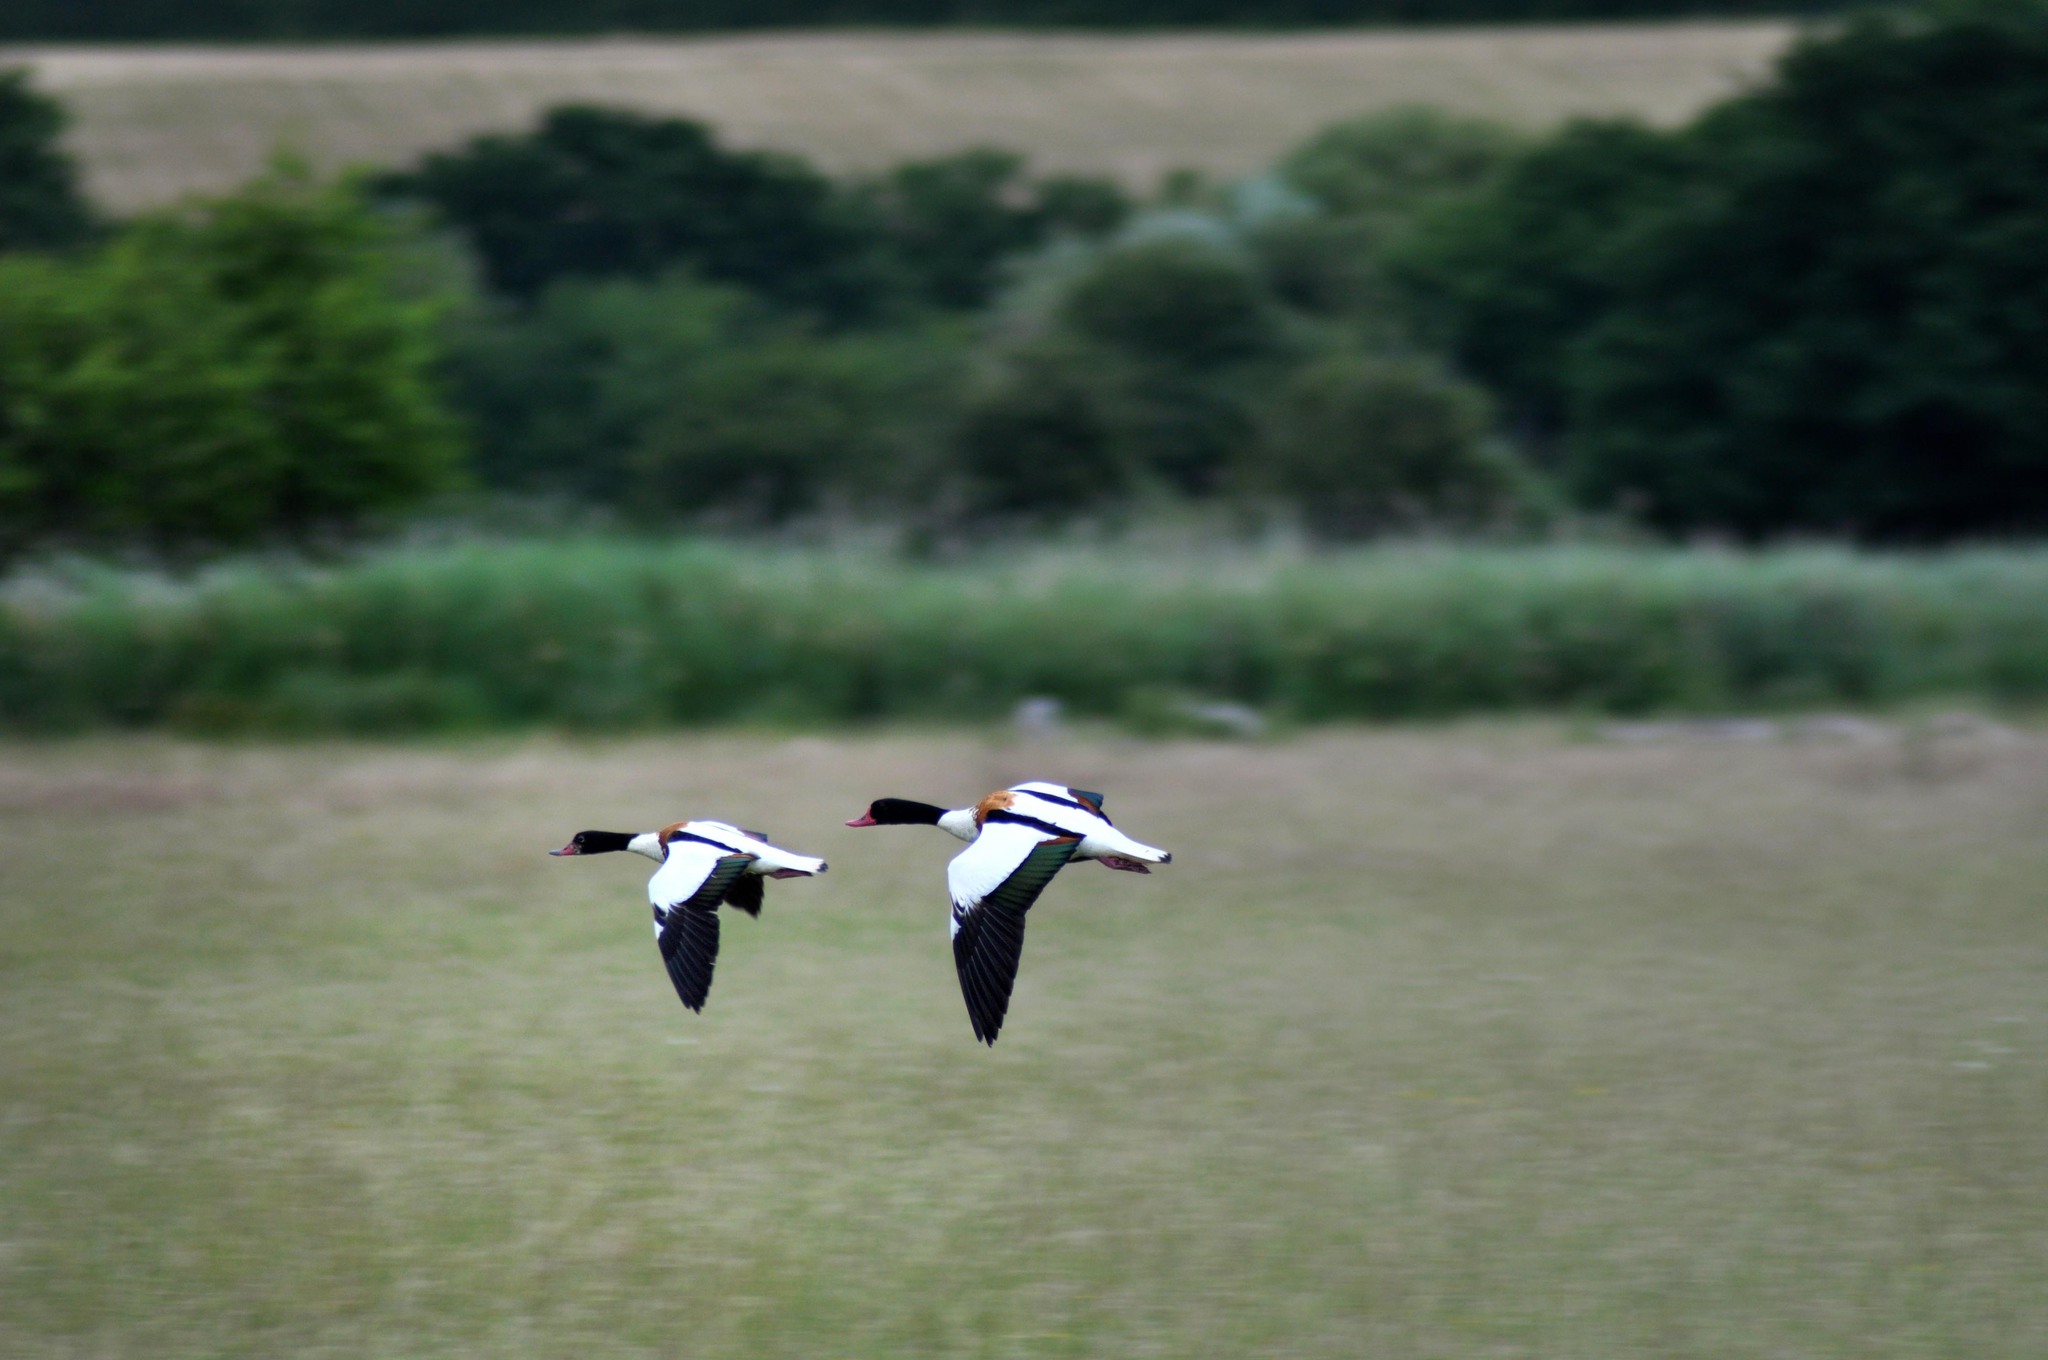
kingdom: Animalia
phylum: Chordata
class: Aves
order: Anseriformes
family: Anatidae
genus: Tadorna
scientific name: Tadorna tadorna
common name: Common shelduck
